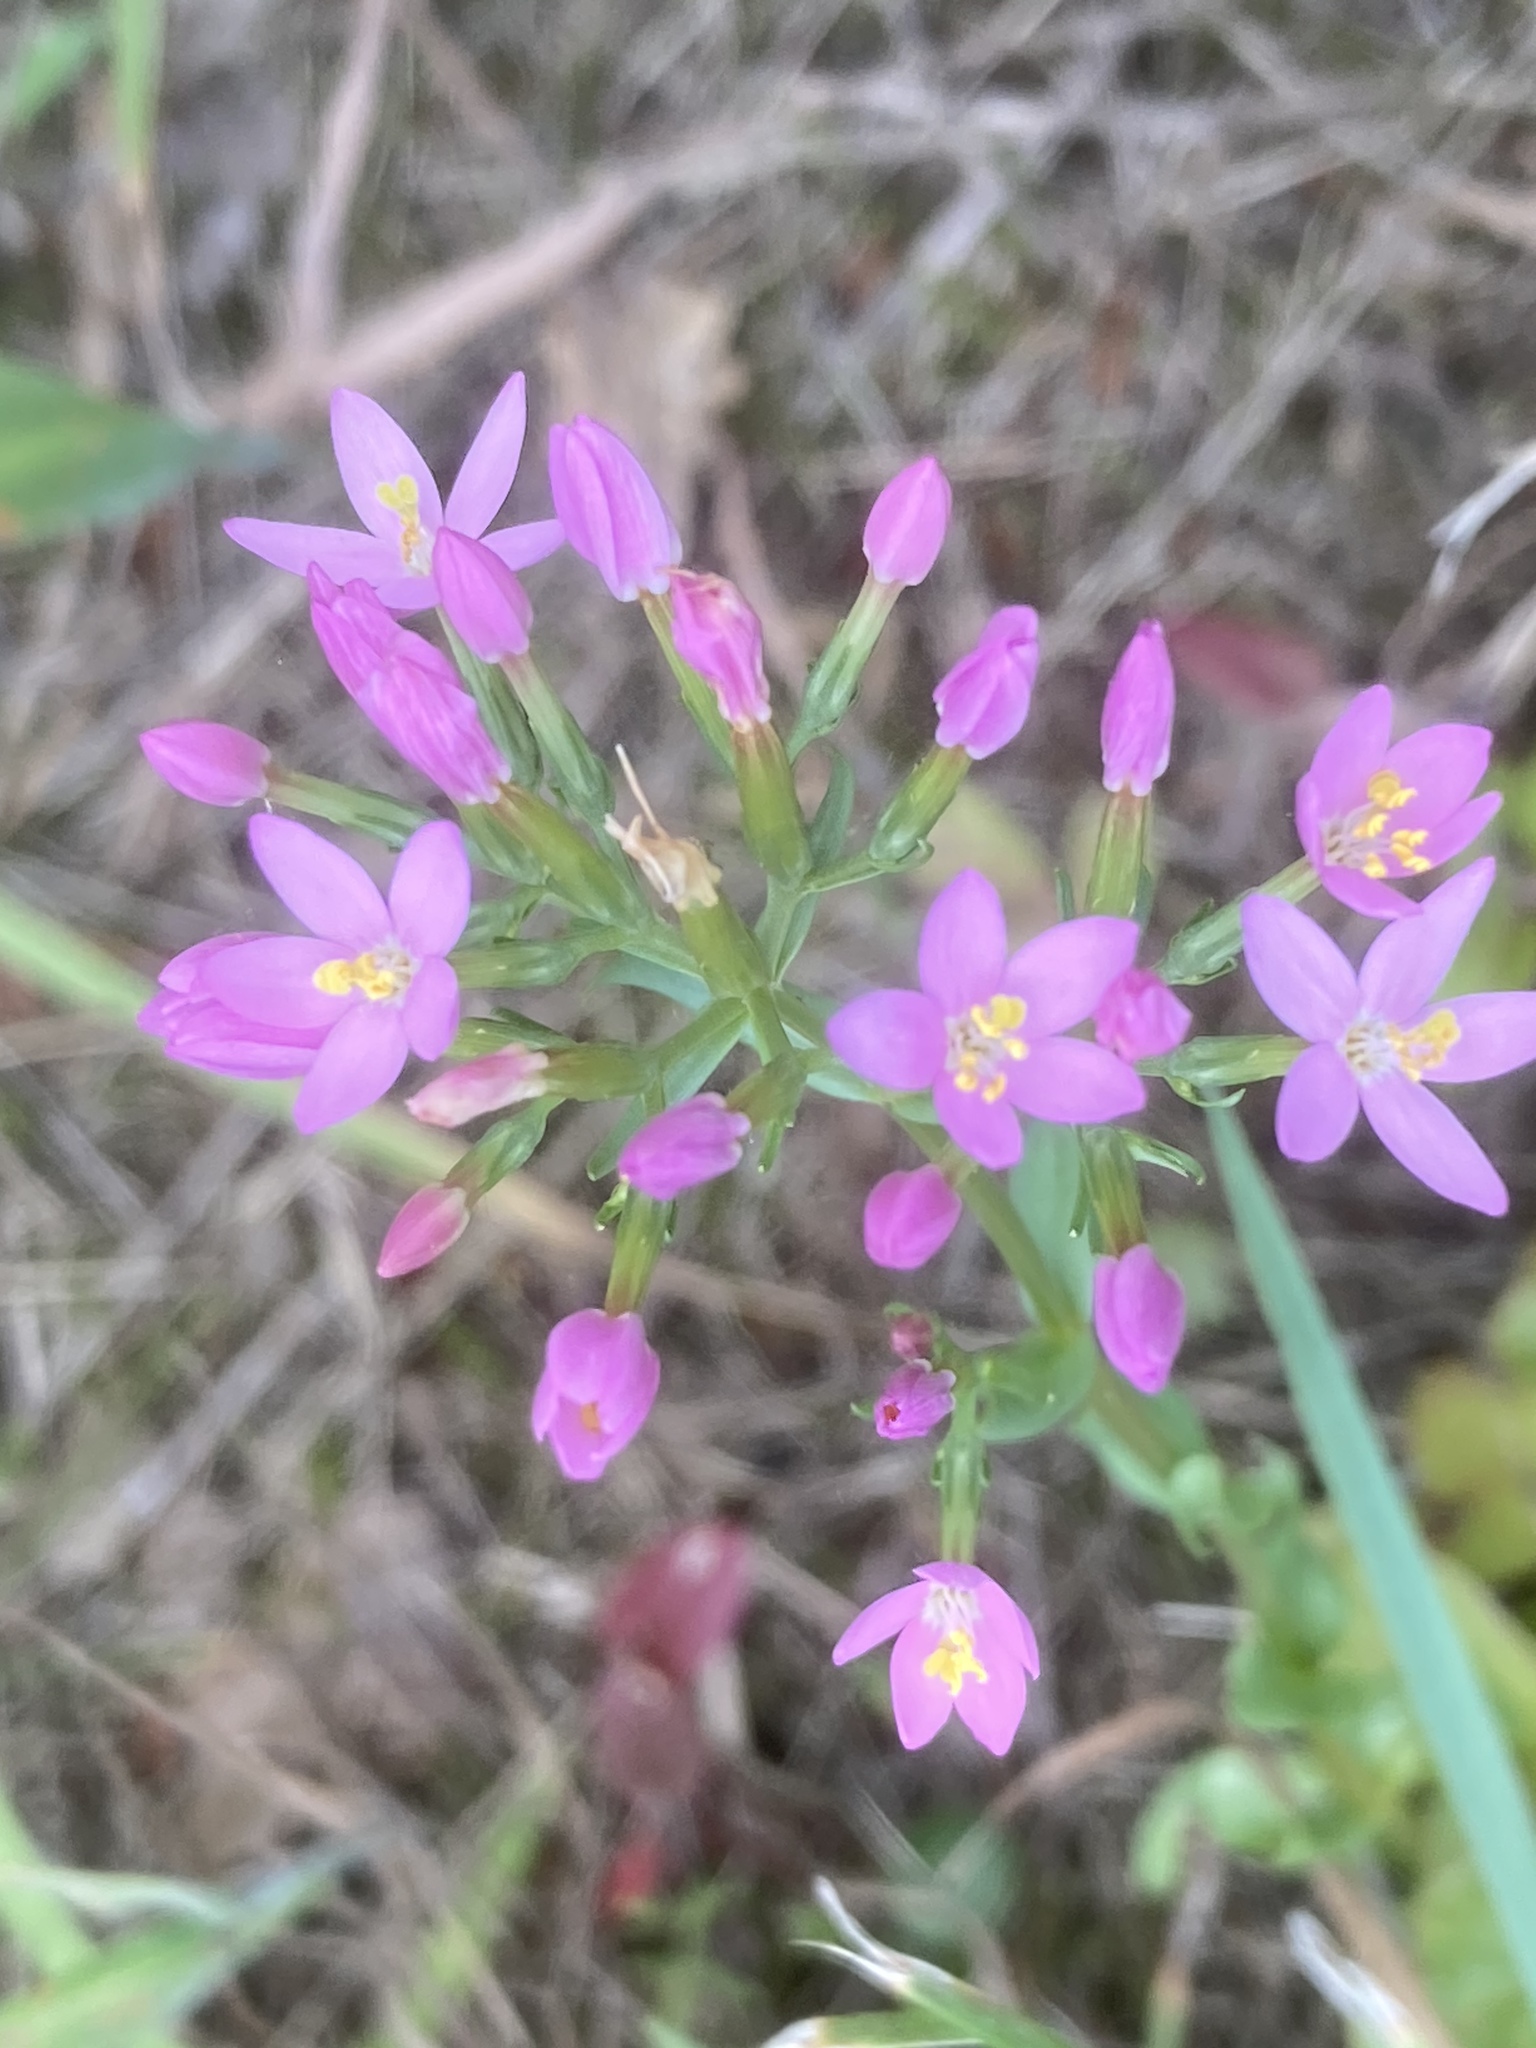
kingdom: Plantae
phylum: Tracheophyta
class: Magnoliopsida
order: Gentianales
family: Gentianaceae
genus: Centaurium
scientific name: Centaurium erythraea
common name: Common centaury
